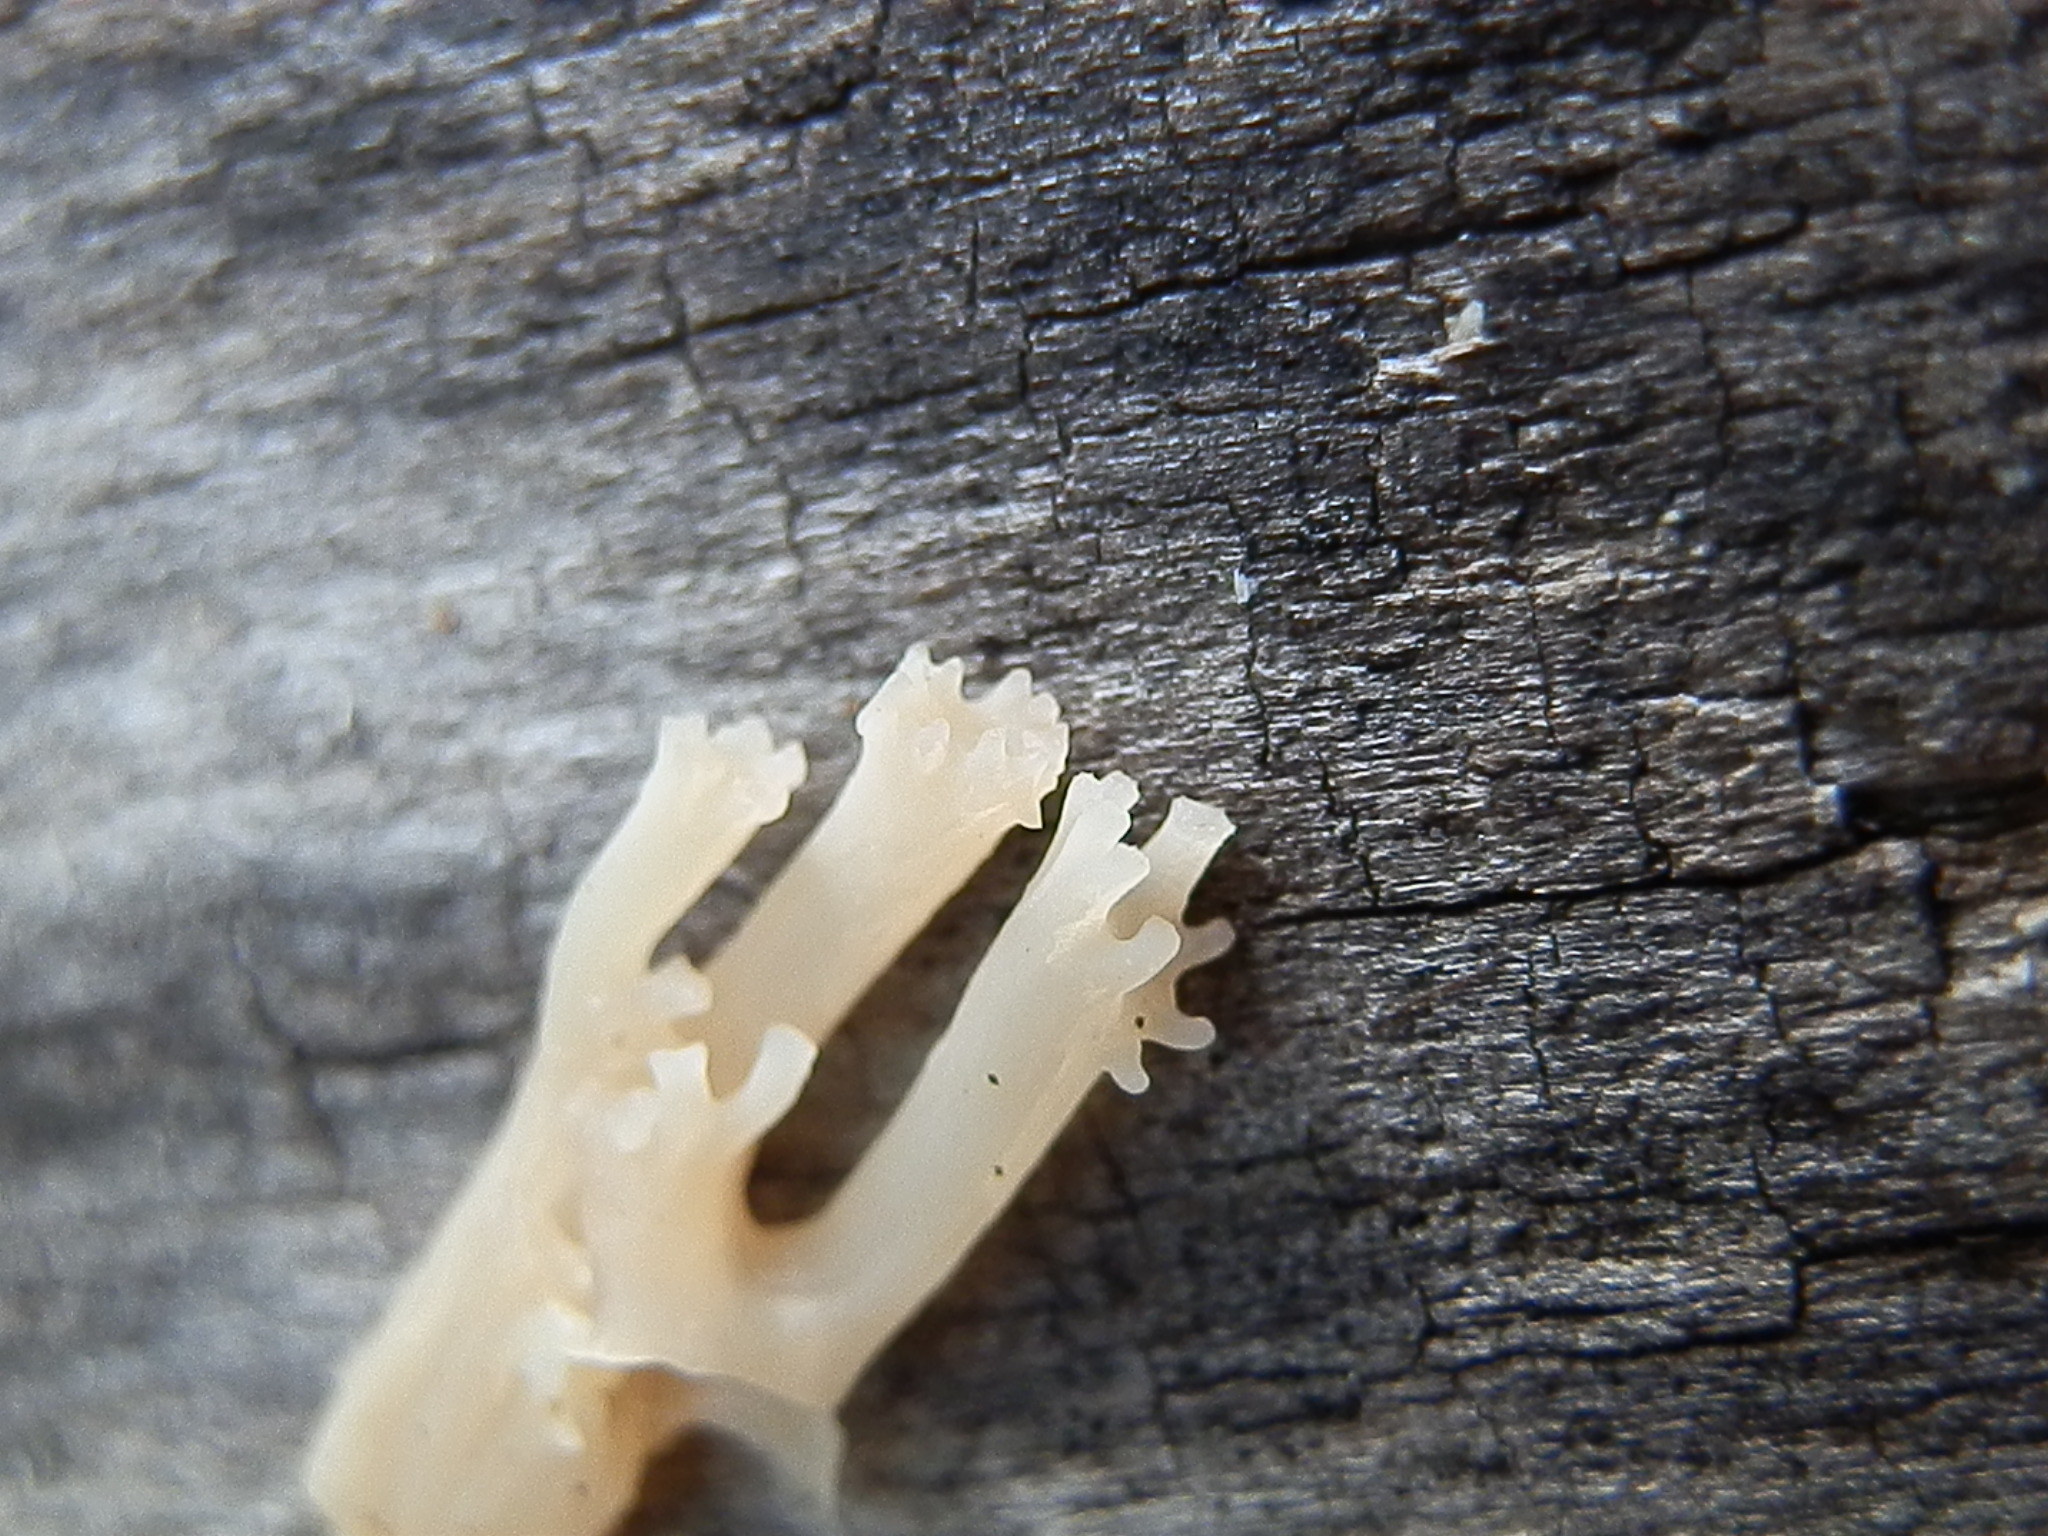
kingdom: Fungi
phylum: Basidiomycota
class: Agaricomycetes
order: Russulales
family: Auriscalpiaceae
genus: Artomyces
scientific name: Artomyces pyxidatus
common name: Crown-tipped coral fungus
